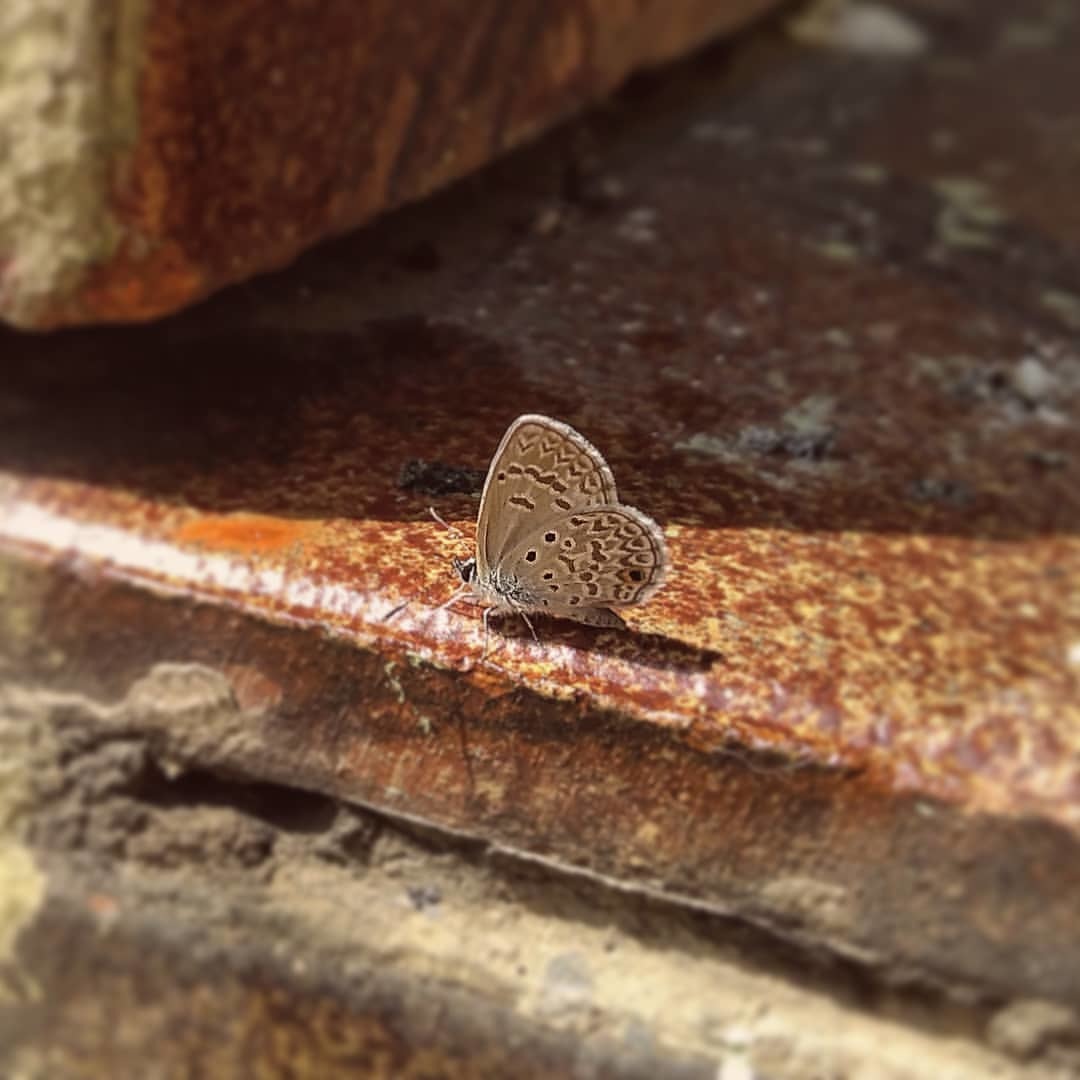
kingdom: Animalia
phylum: Arthropoda
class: Insecta
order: Lepidoptera
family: Lycaenidae
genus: Hemiargus
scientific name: Hemiargus hanno
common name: Common blue
